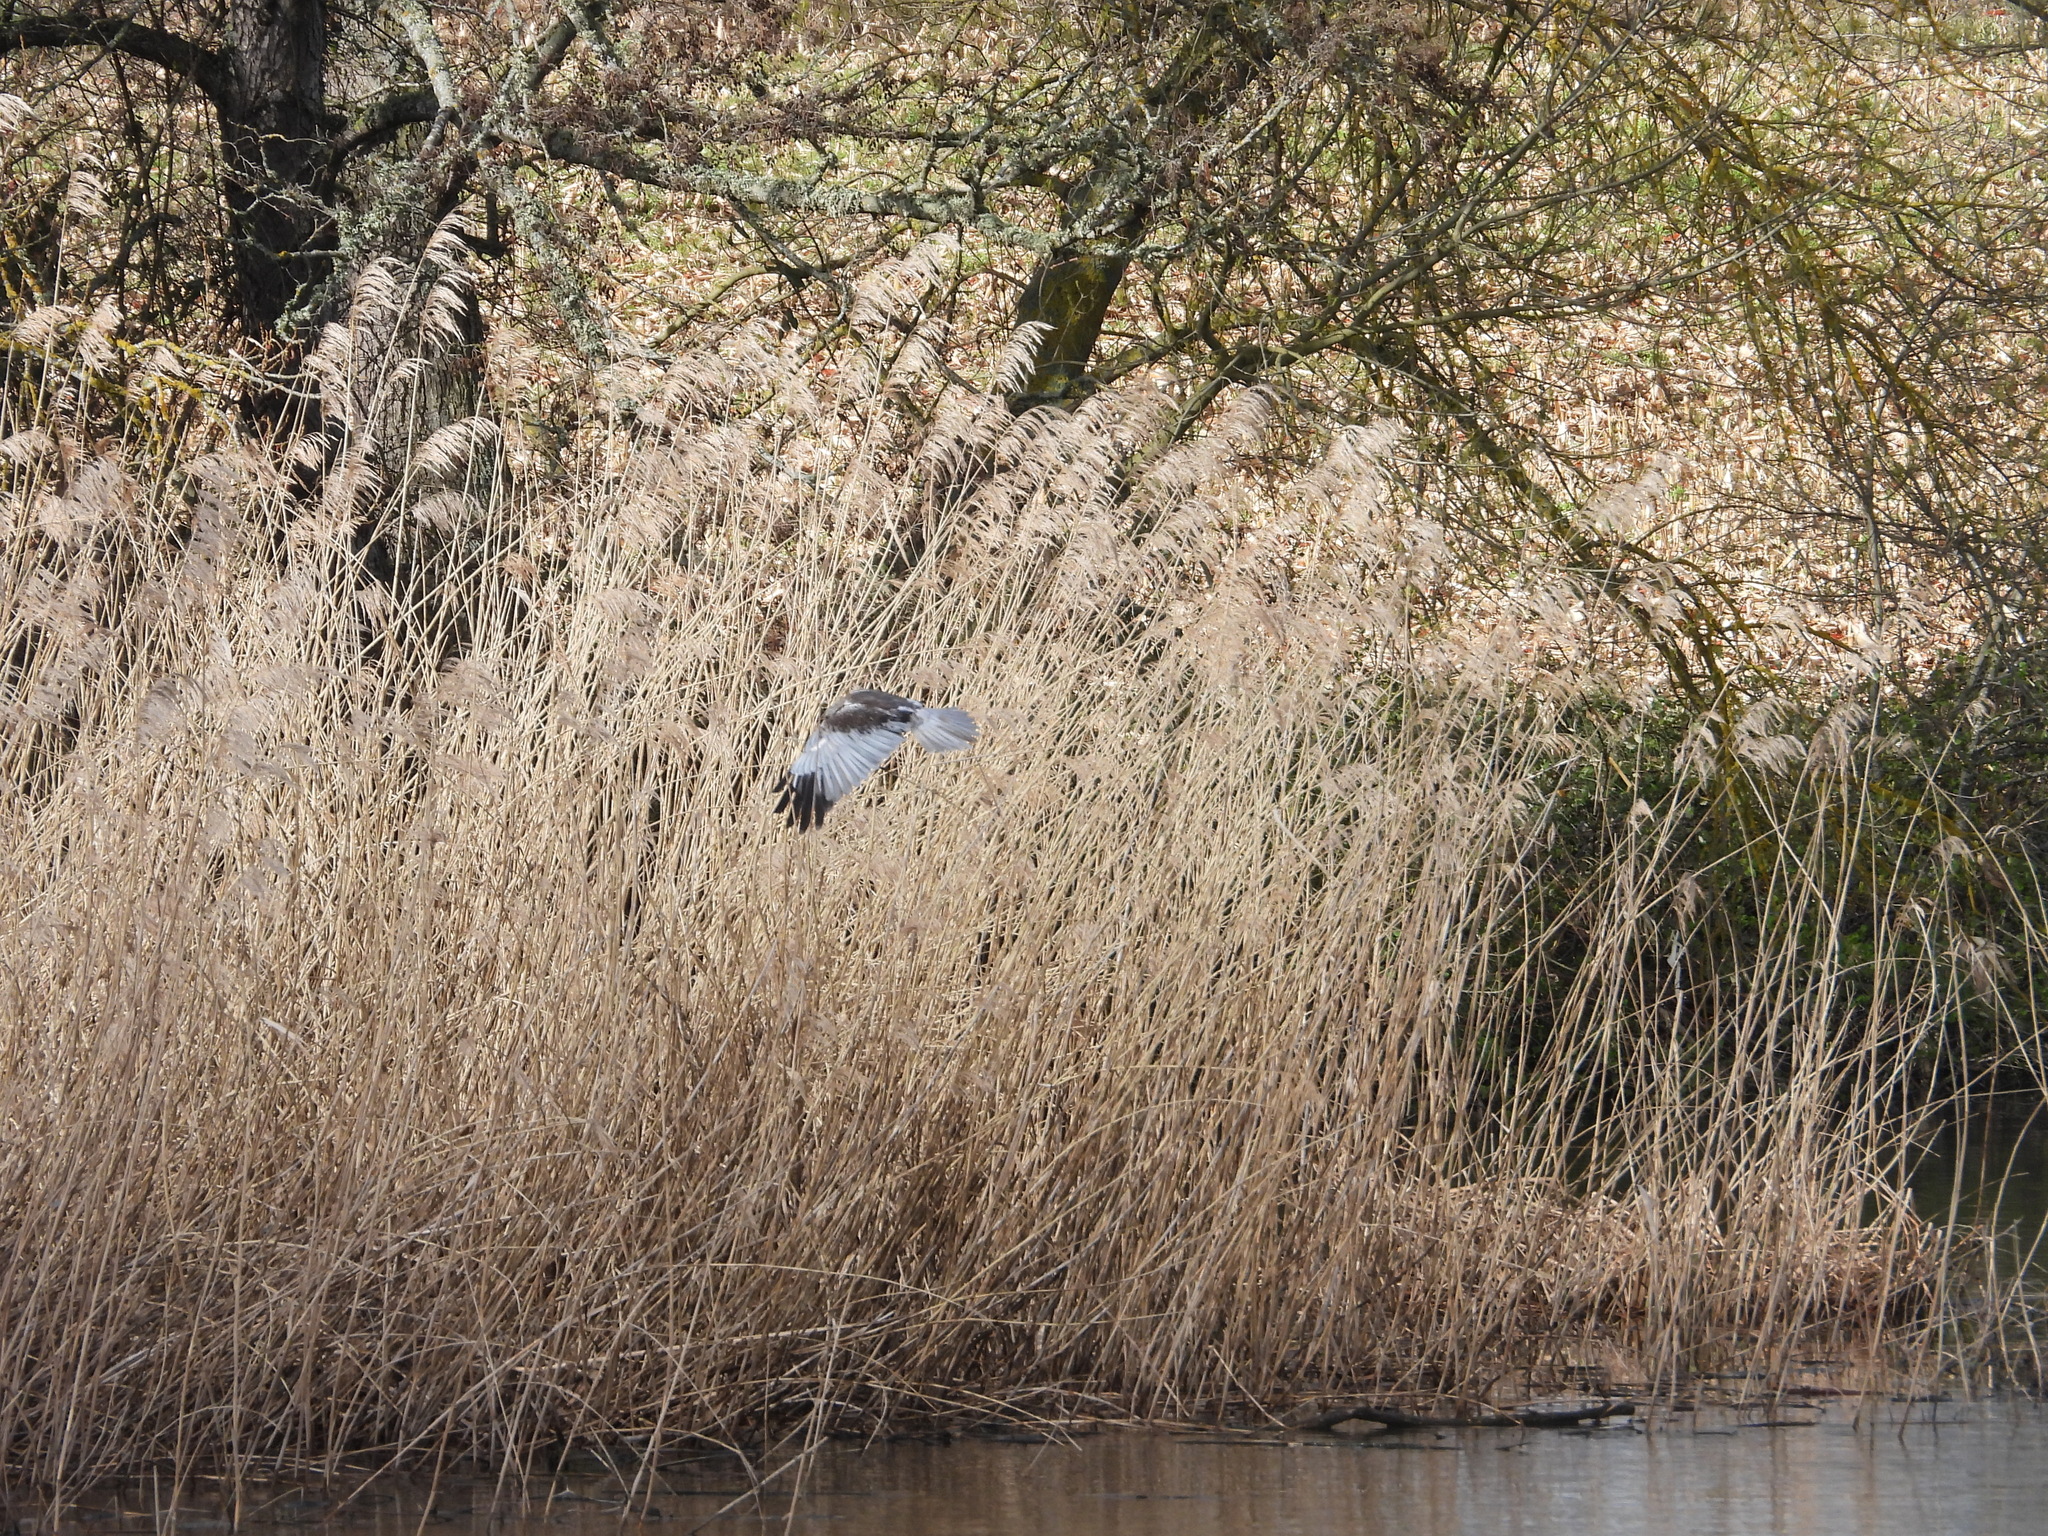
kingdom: Animalia
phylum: Chordata
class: Aves
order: Accipitriformes
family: Accipitridae
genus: Circus
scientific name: Circus aeruginosus
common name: Western marsh harrier
